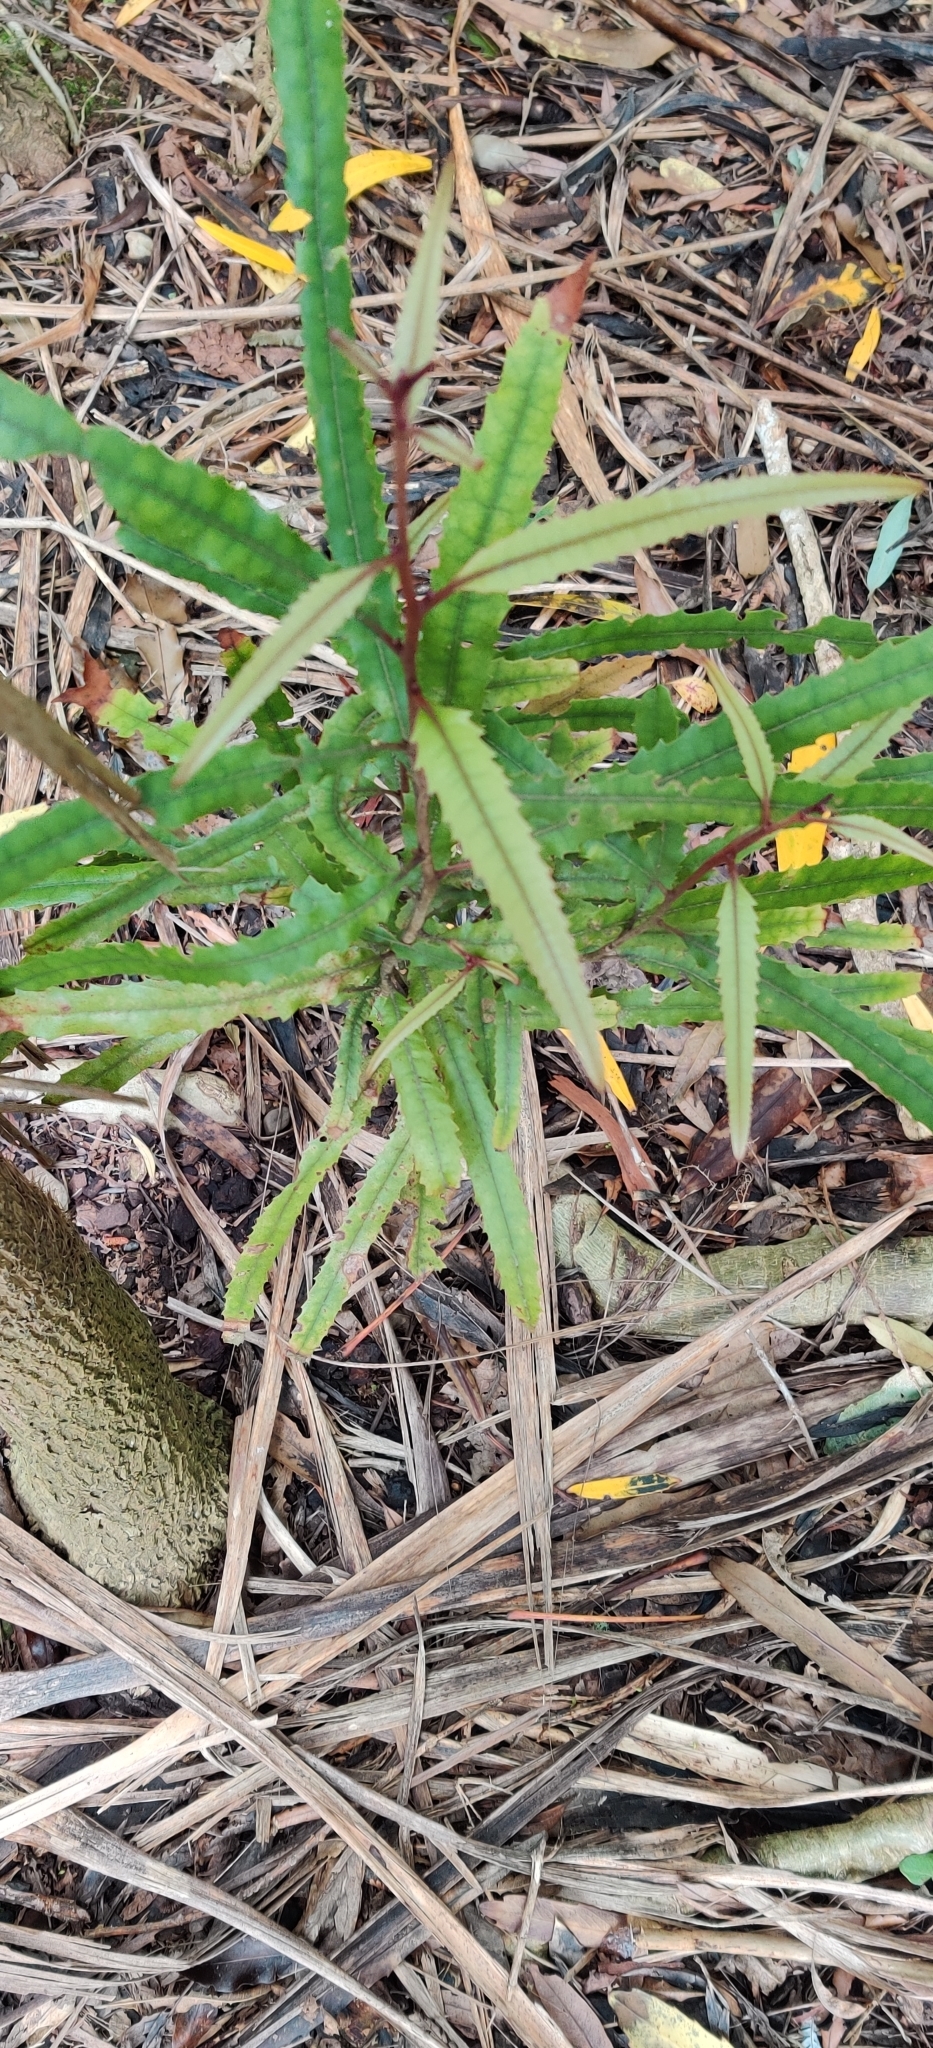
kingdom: Plantae
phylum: Tracheophyta
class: Magnoliopsida
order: Proteales
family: Proteaceae
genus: Knightia
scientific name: Knightia excelsa
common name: New zealand-honeysuckle
